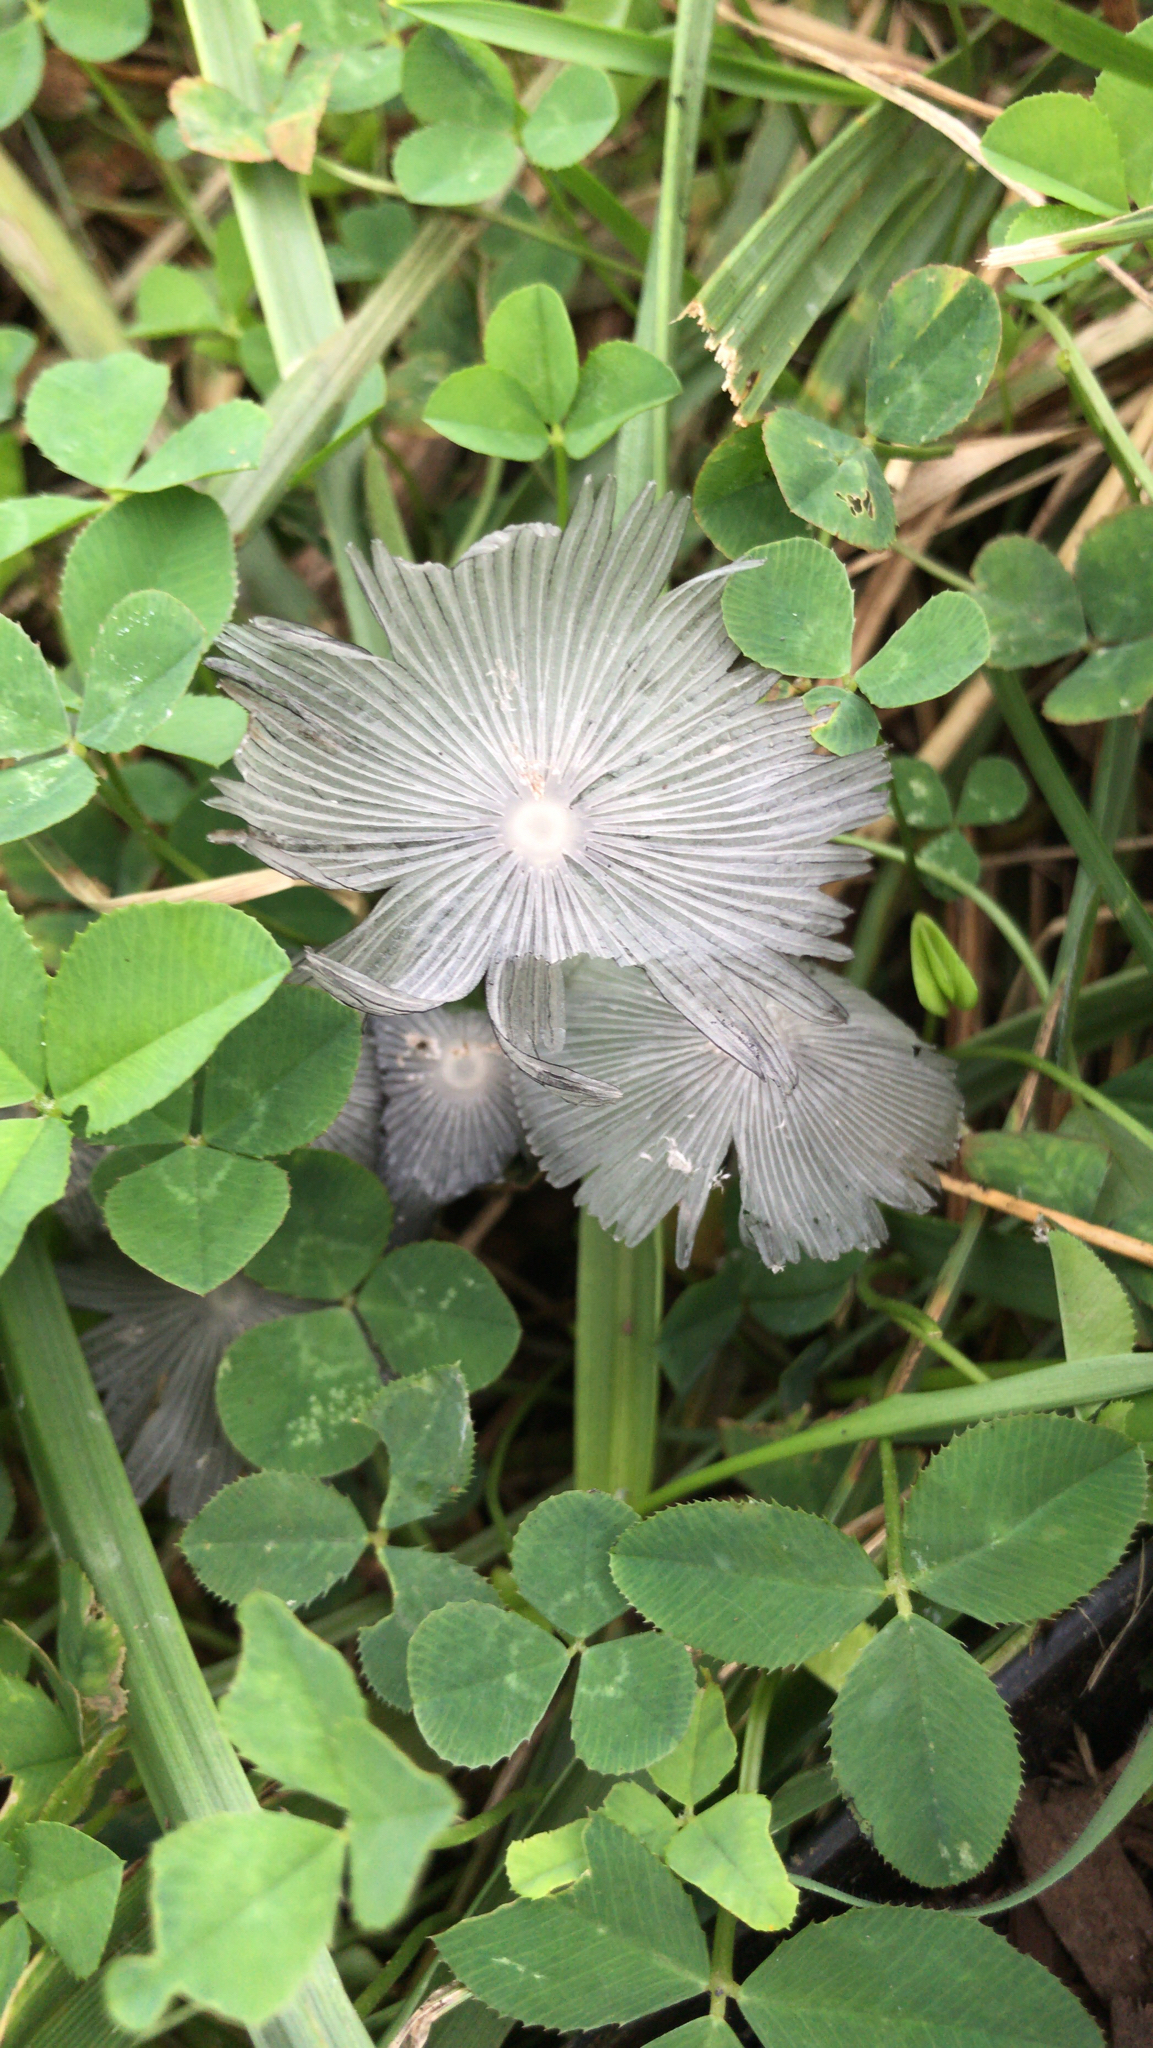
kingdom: Fungi
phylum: Basidiomycota
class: Agaricomycetes
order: Agaricales
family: Psathyrellaceae
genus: Coprinopsis
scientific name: Coprinopsis lagopus
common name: Hare'sfoot inkcap
